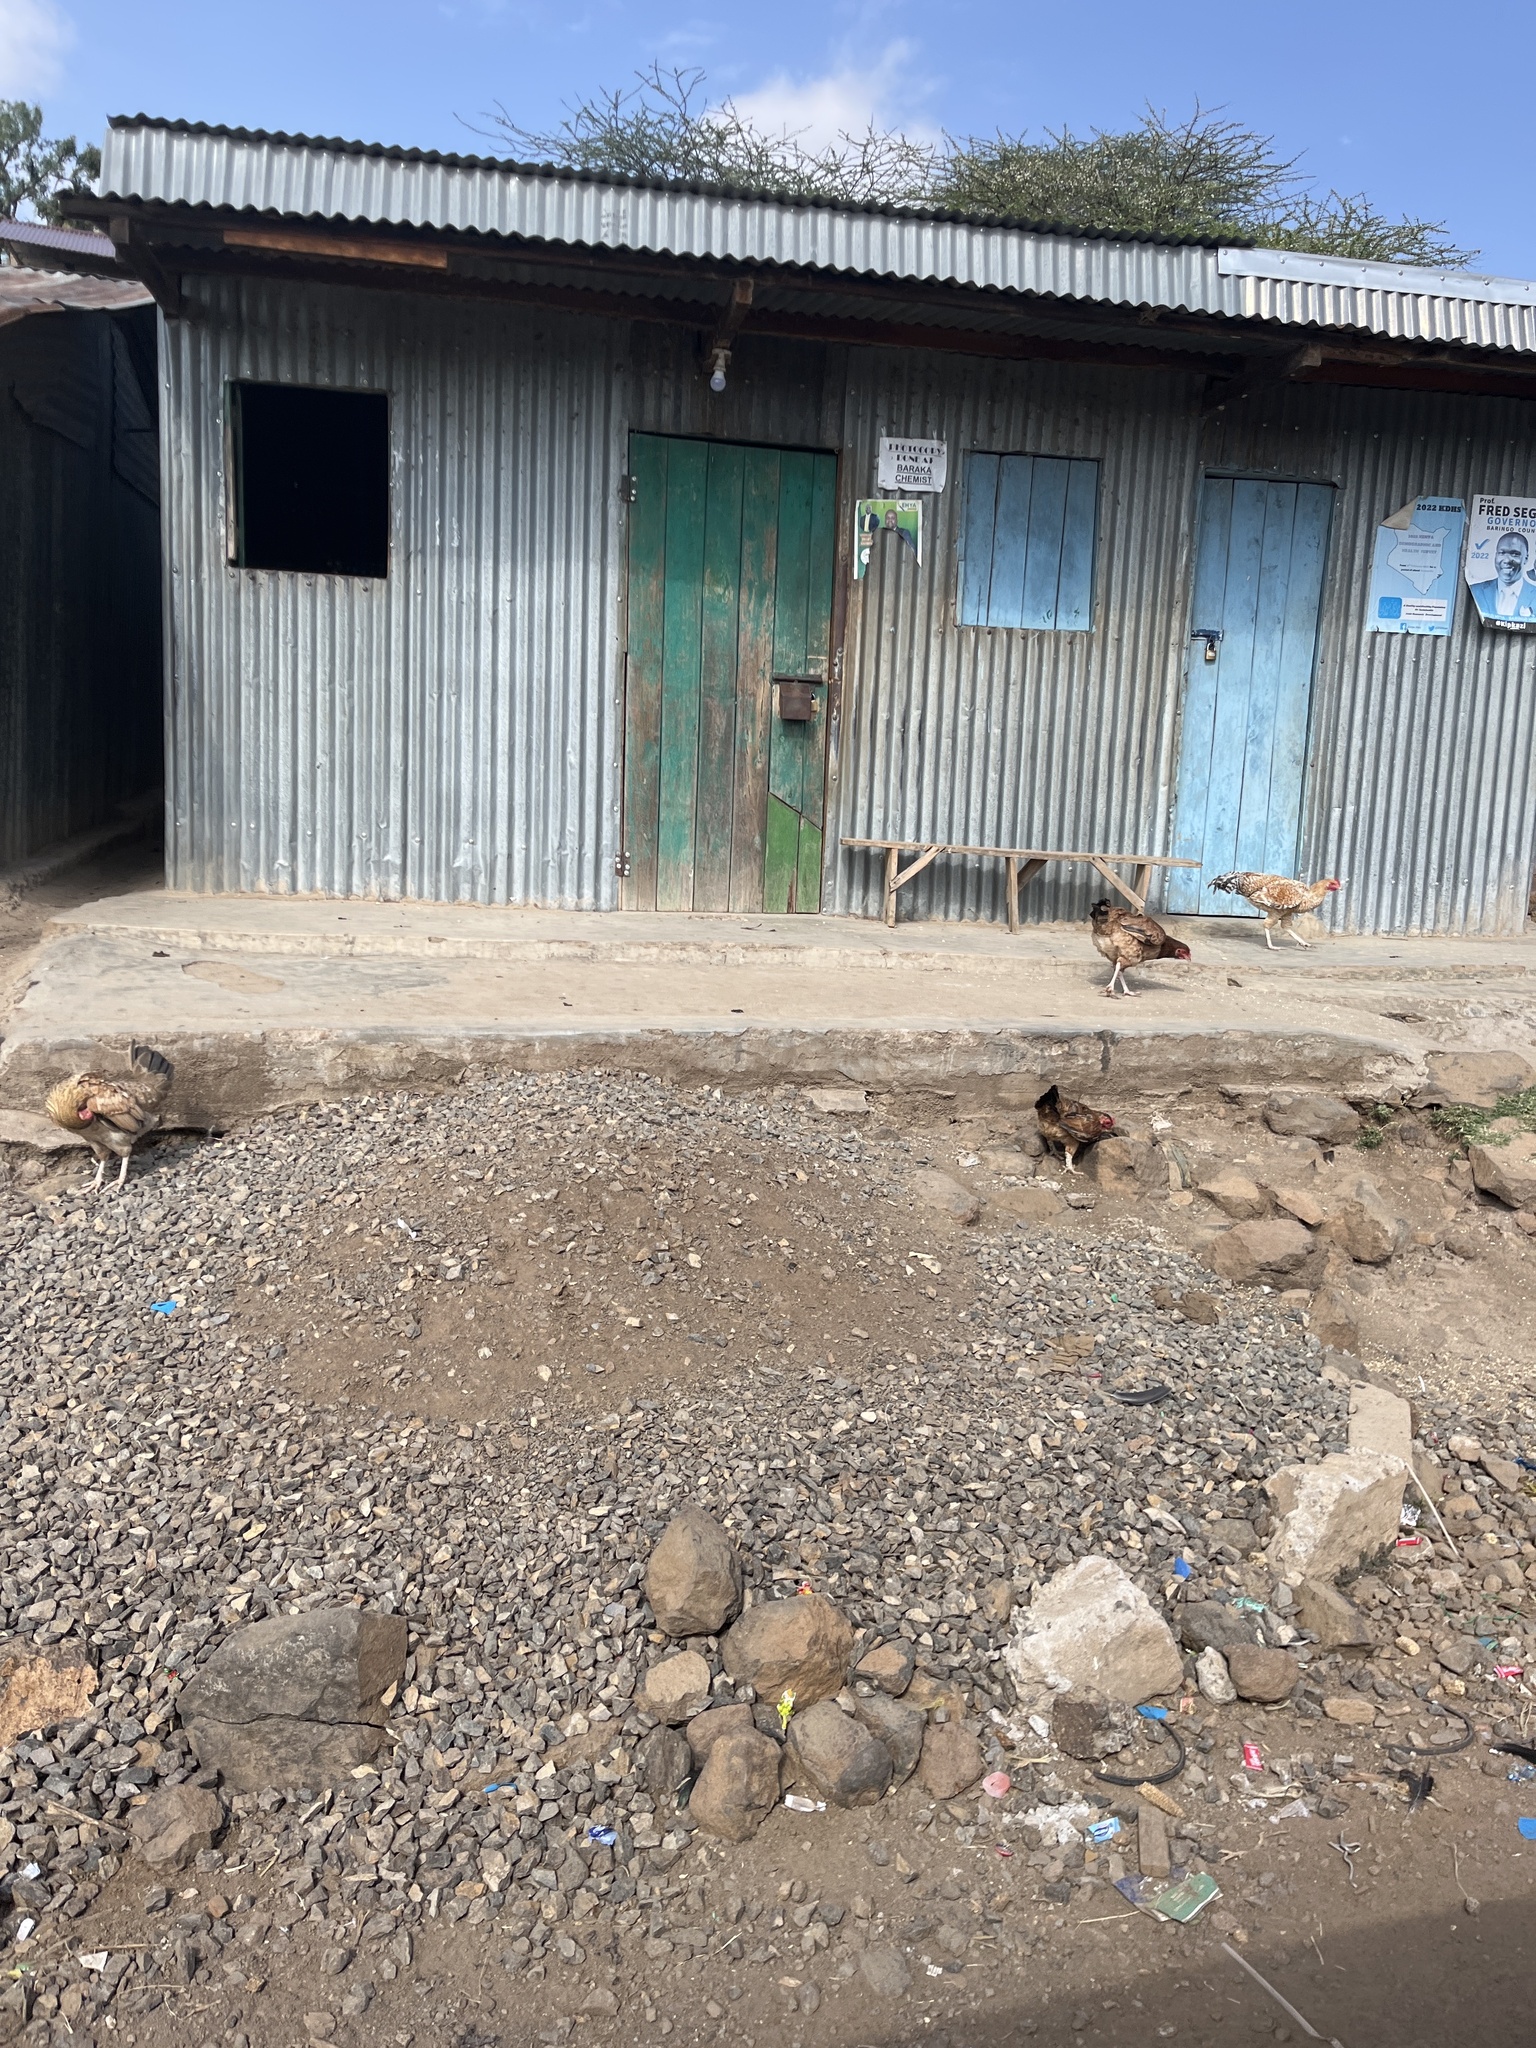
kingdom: Animalia
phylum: Chordata
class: Aves
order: Galliformes
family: Phasianidae
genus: Gallus
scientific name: Gallus gallus
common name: Red junglefowl
